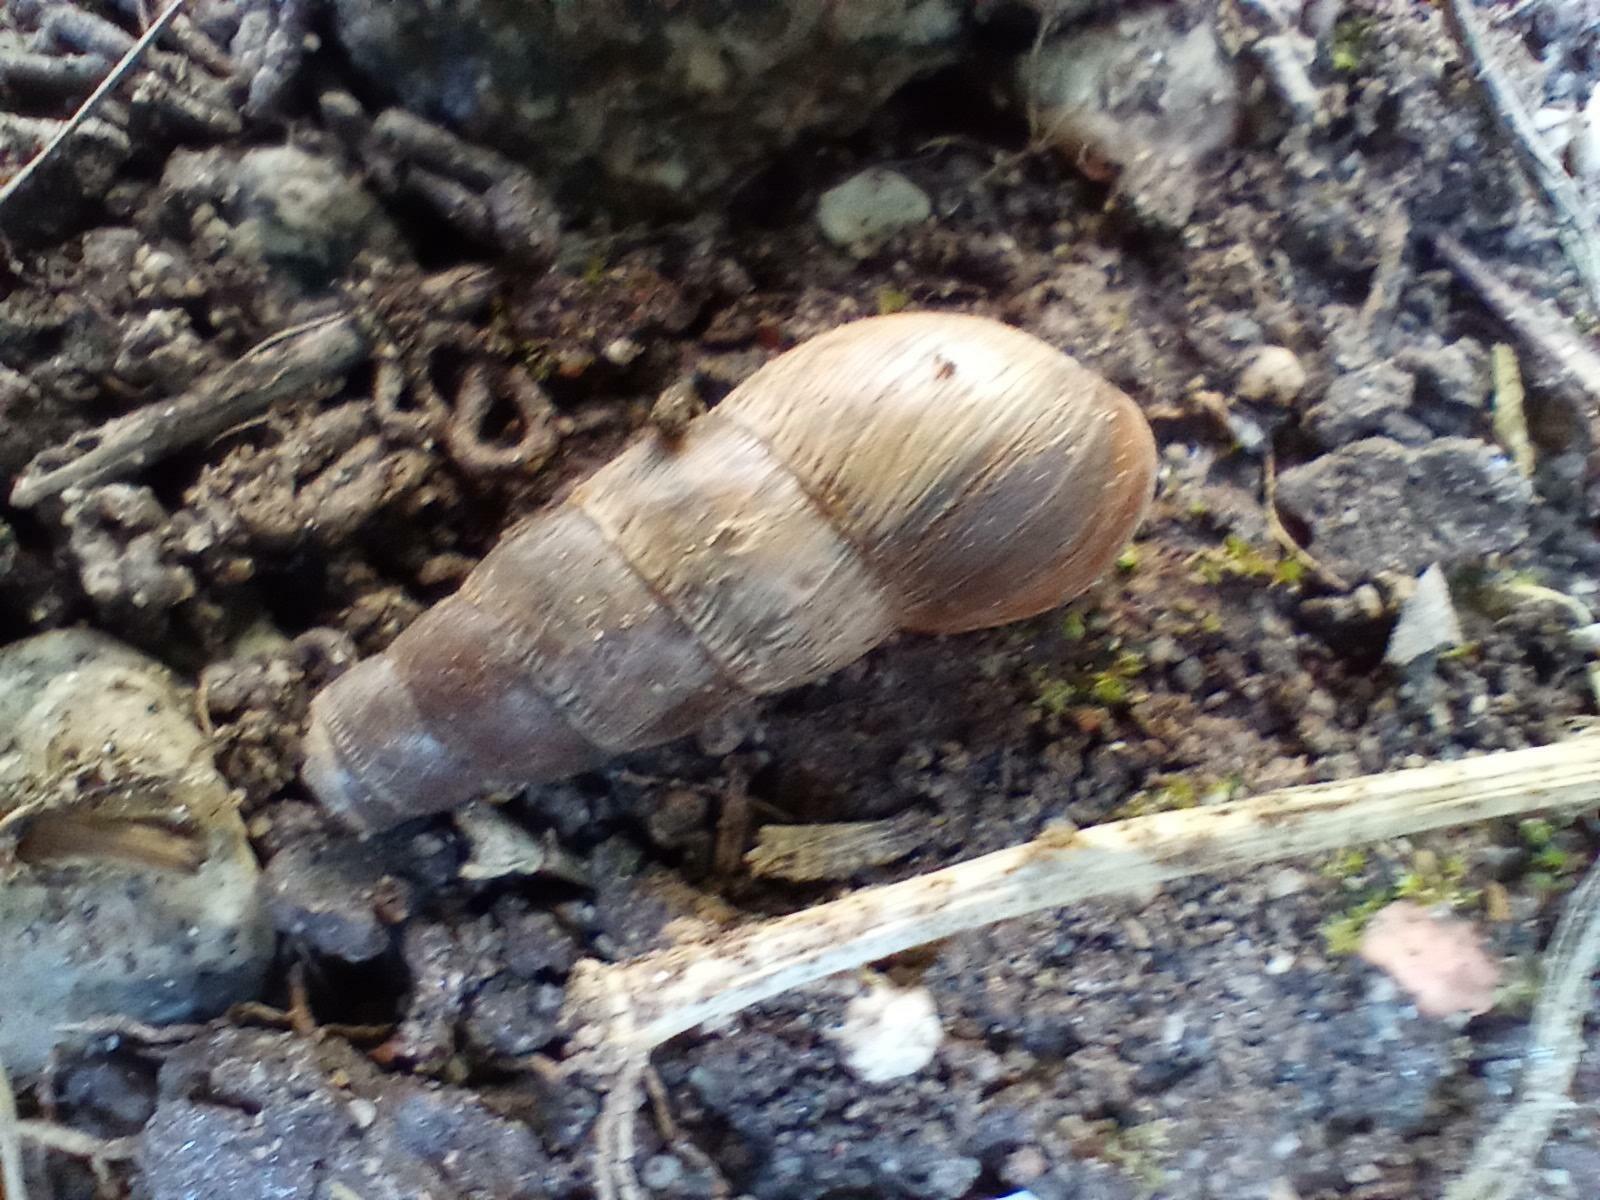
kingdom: Animalia
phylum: Mollusca
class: Gastropoda
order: Stylommatophora
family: Achatinidae
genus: Rumina
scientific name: Rumina decollata
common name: Decollate snail
